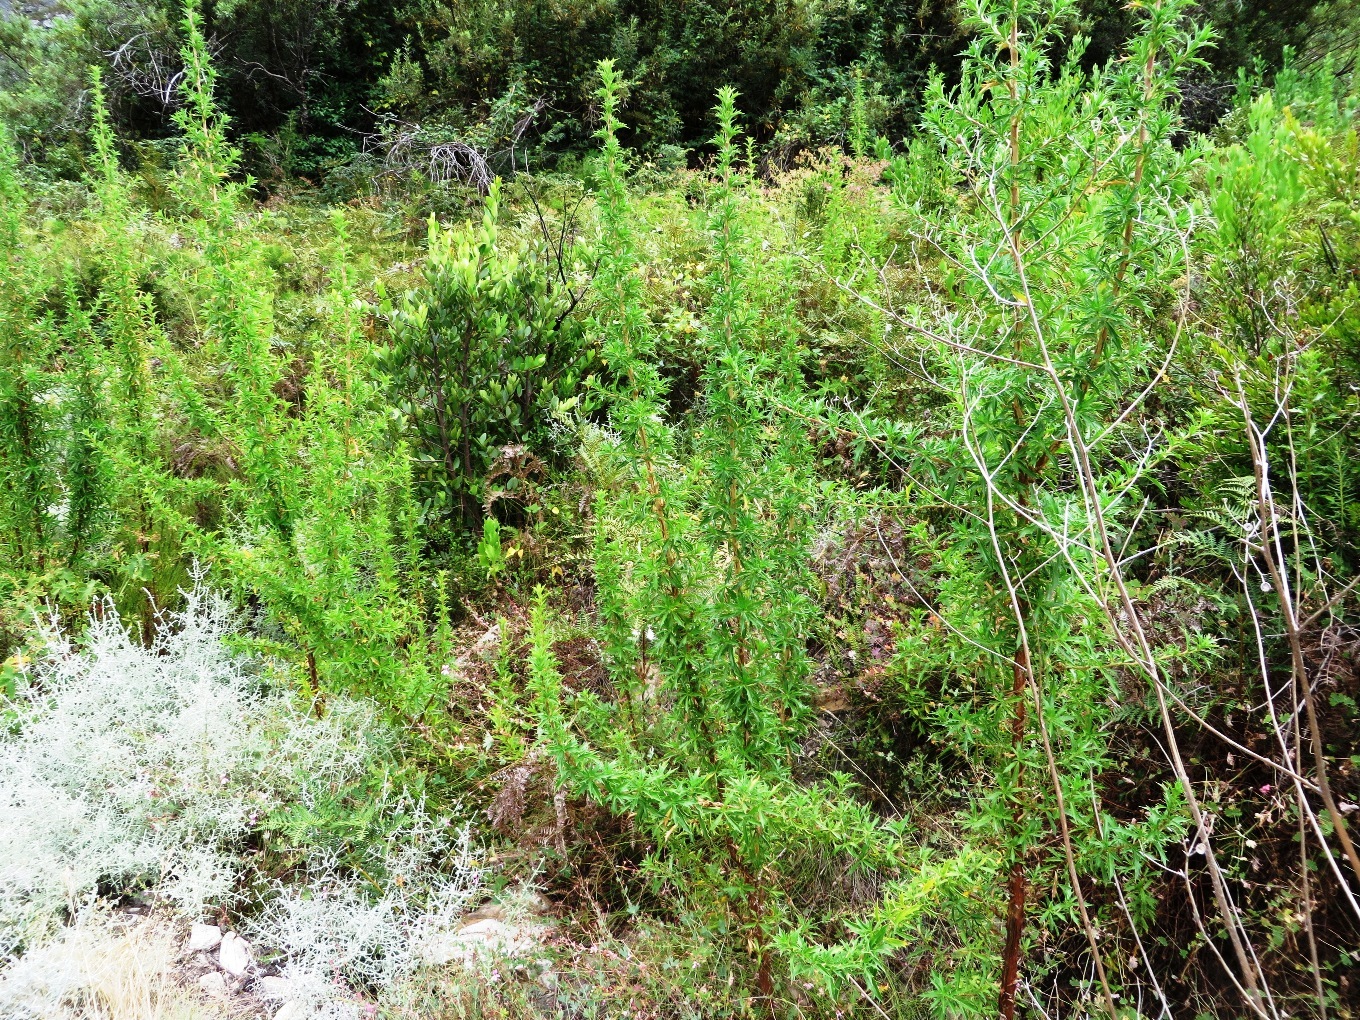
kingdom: Plantae
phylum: Tracheophyta
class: Magnoliopsida
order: Rosales
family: Rosaceae
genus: Cliffortia
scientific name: Cliffortia phillipsii
